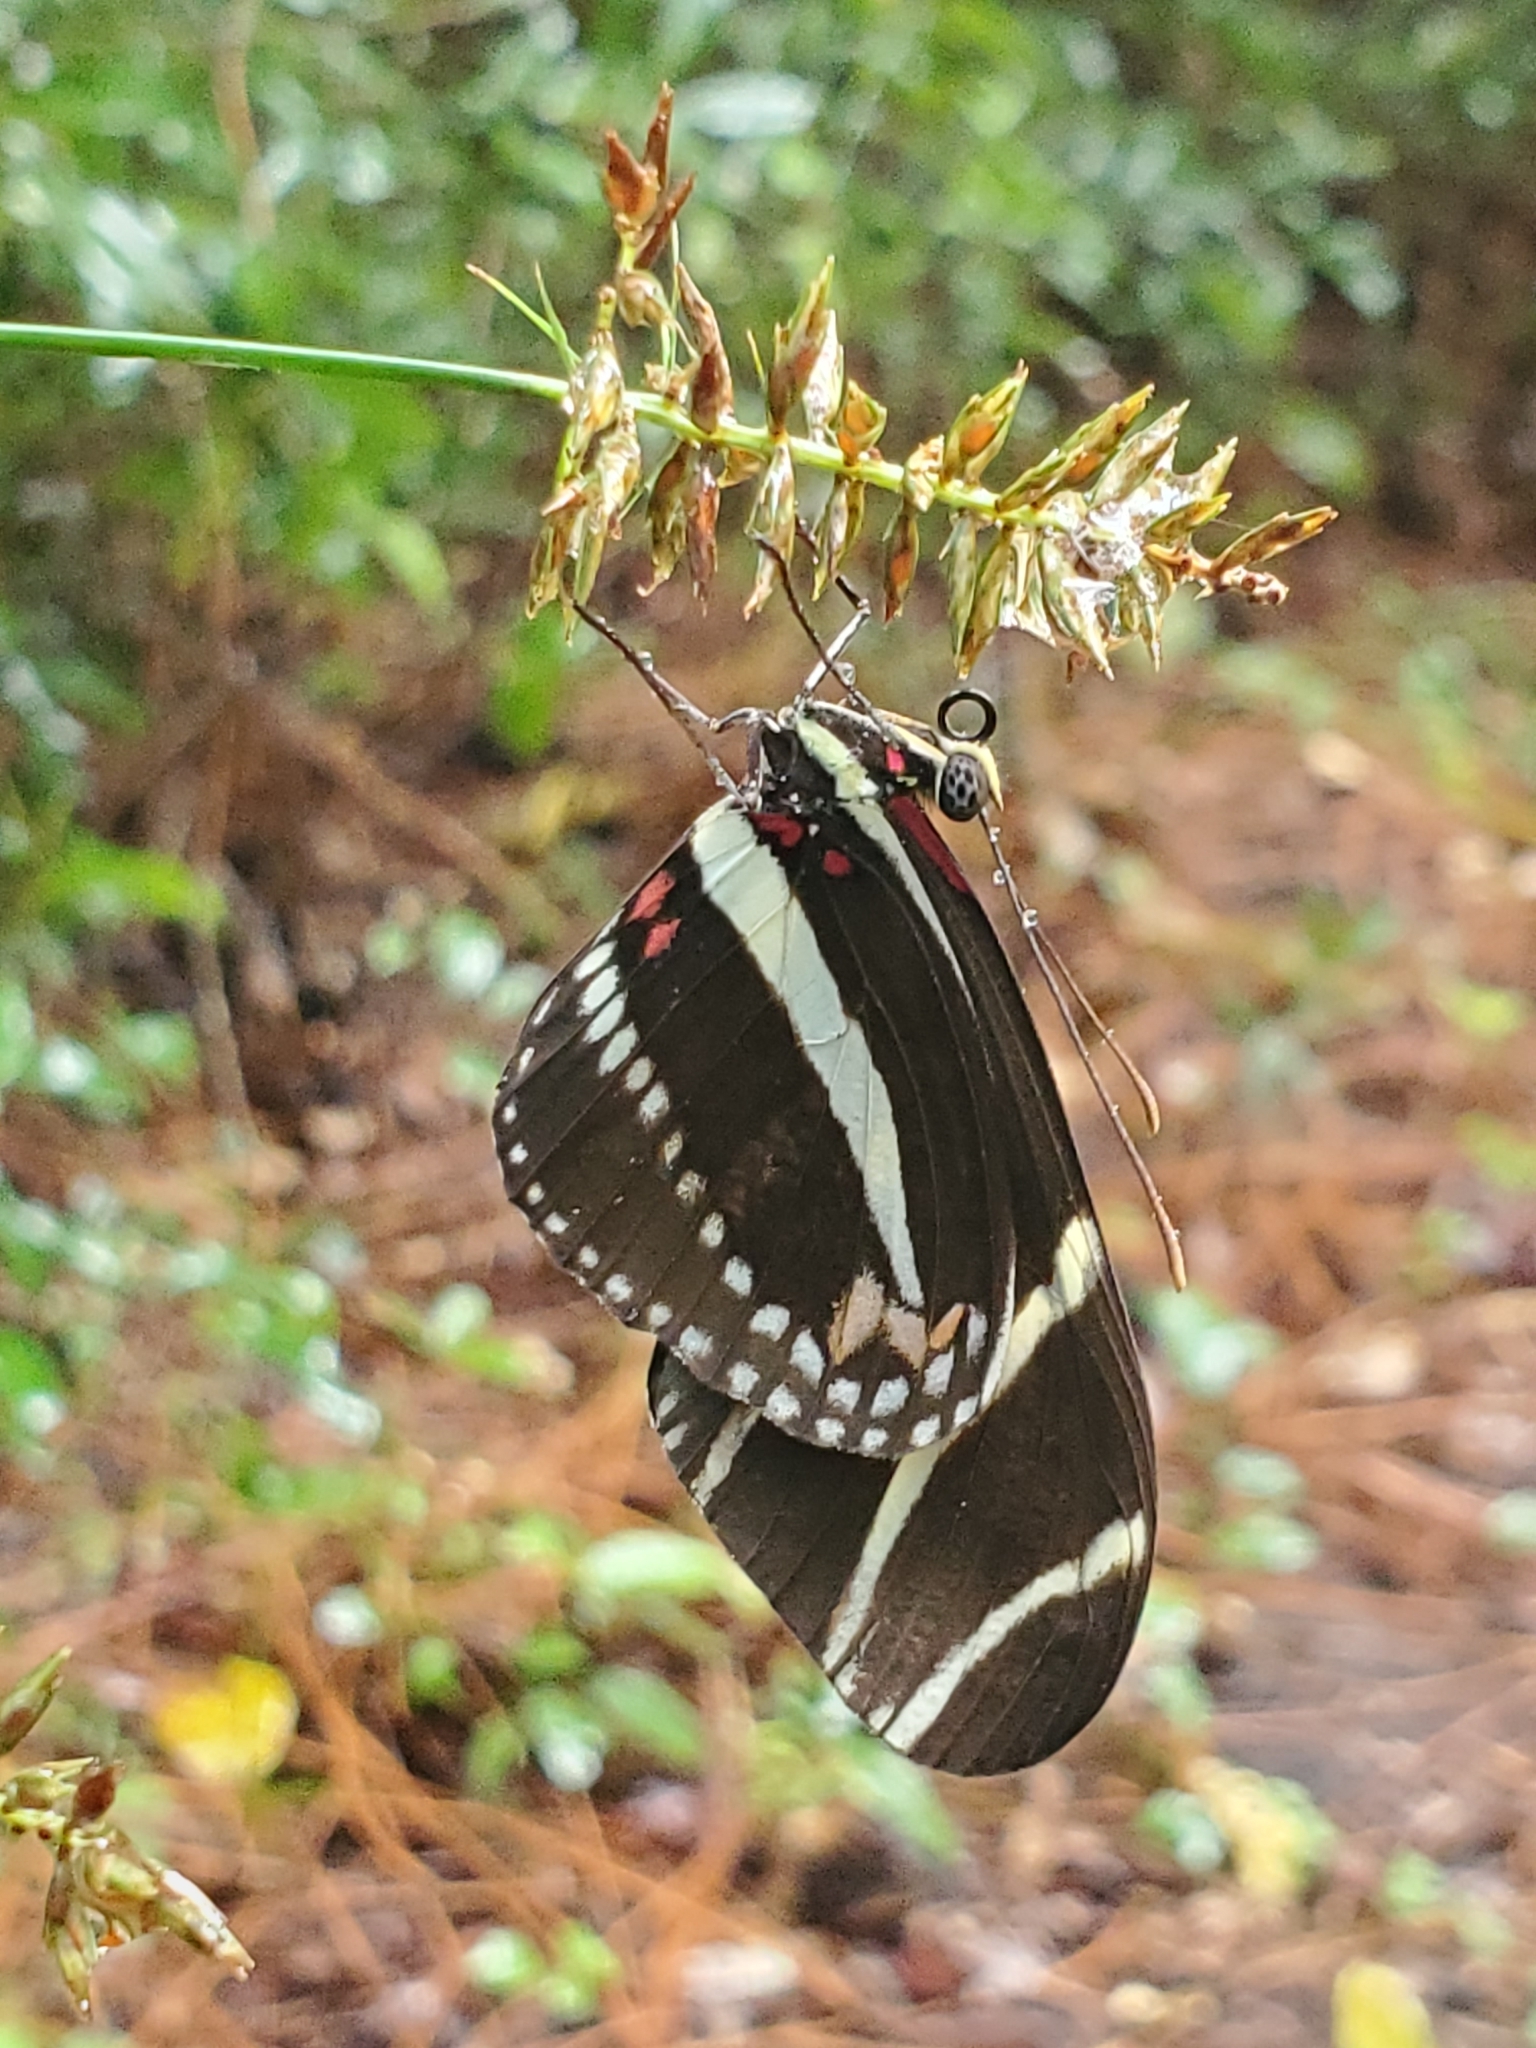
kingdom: Animalia
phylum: Arthropoda
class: Insecta
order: Lepidoptera
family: Nymphalidae
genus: Heliconius
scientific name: Heliconius charithonia
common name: Zebra long wing
